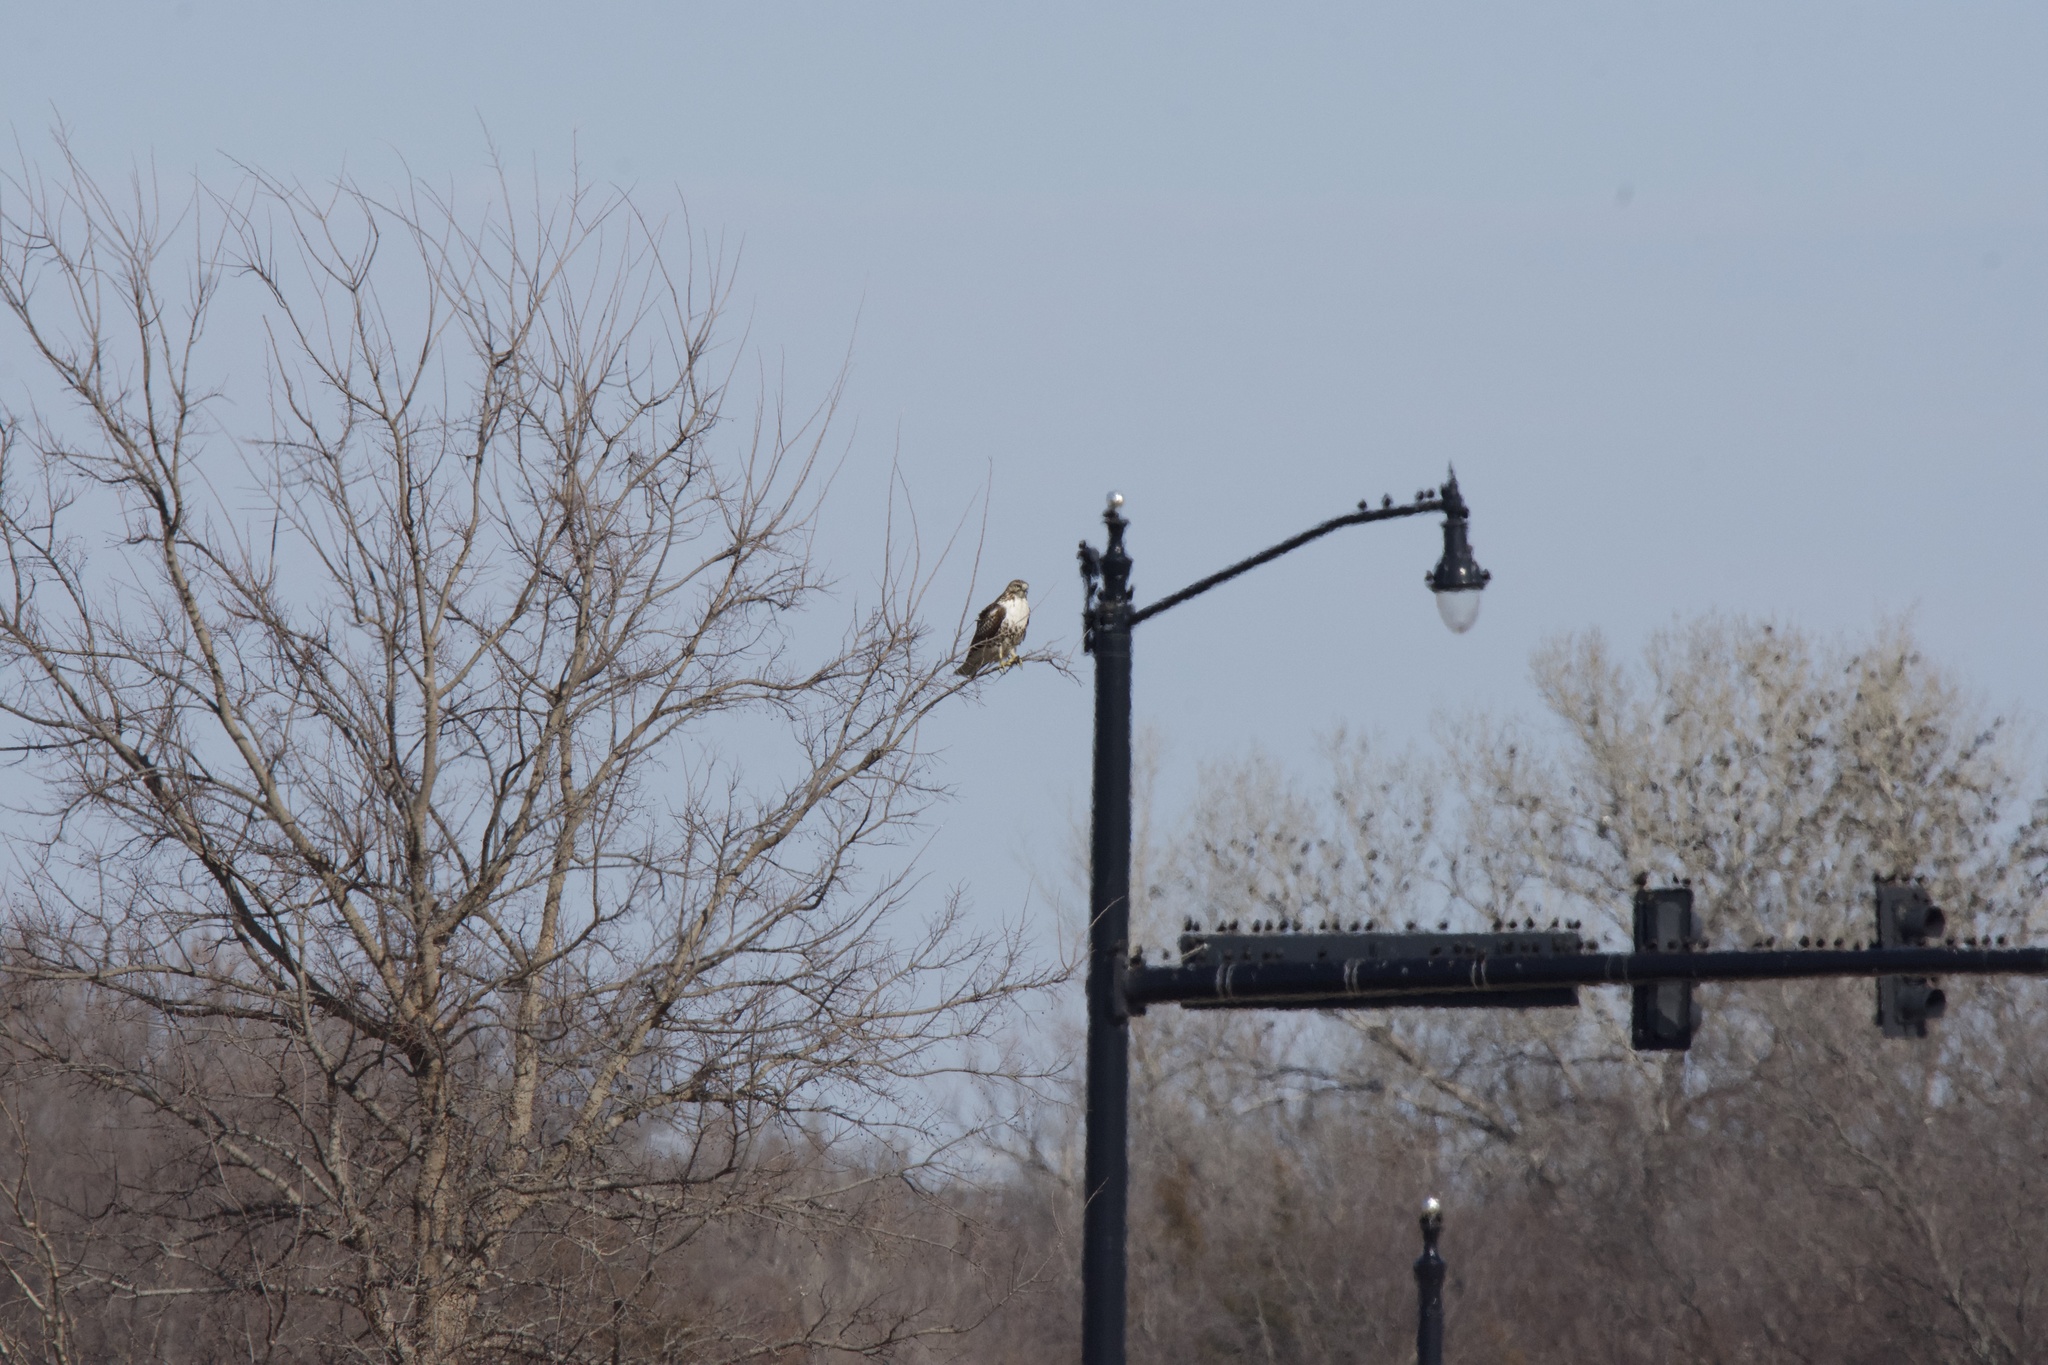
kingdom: Animalia
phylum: Chordata
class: Aves
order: Accipitriformes
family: Accipitridae
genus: Buteo
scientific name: Buteo jamaicensis
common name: Red-tailed hawk
